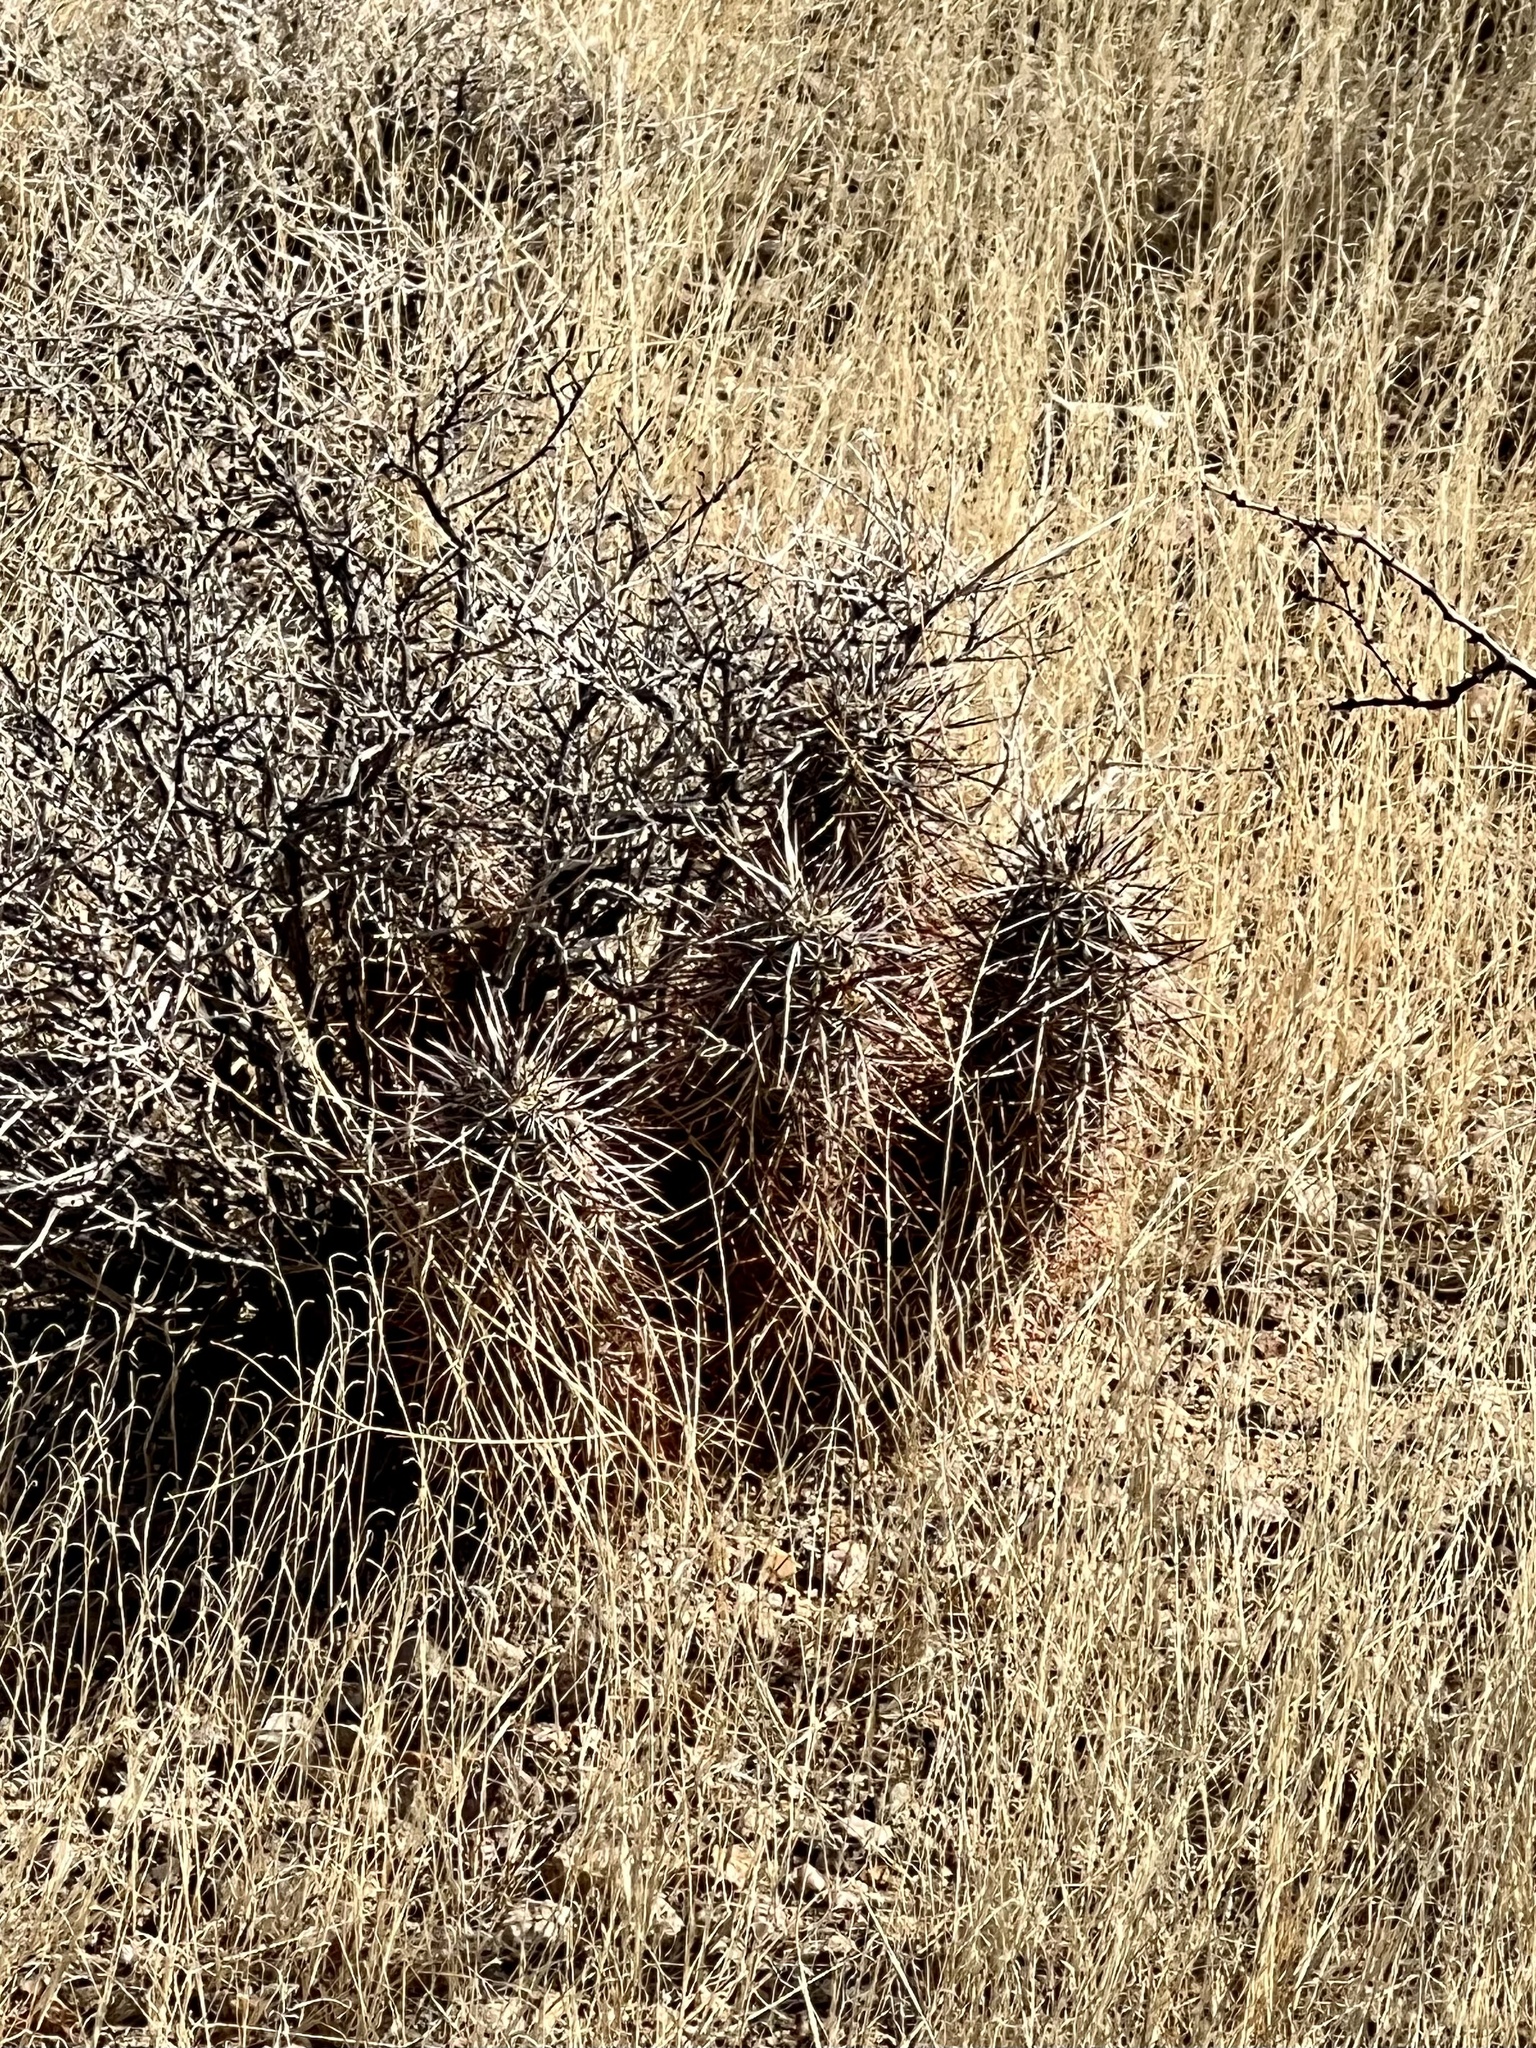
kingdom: Plantae
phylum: Tracheophyta
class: Magnoliopsida
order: Caryophyllales
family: Cactaceae
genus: Echinocereus
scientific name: Echinocereus engelmannii
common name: Engelmann's hedgehog cactus
